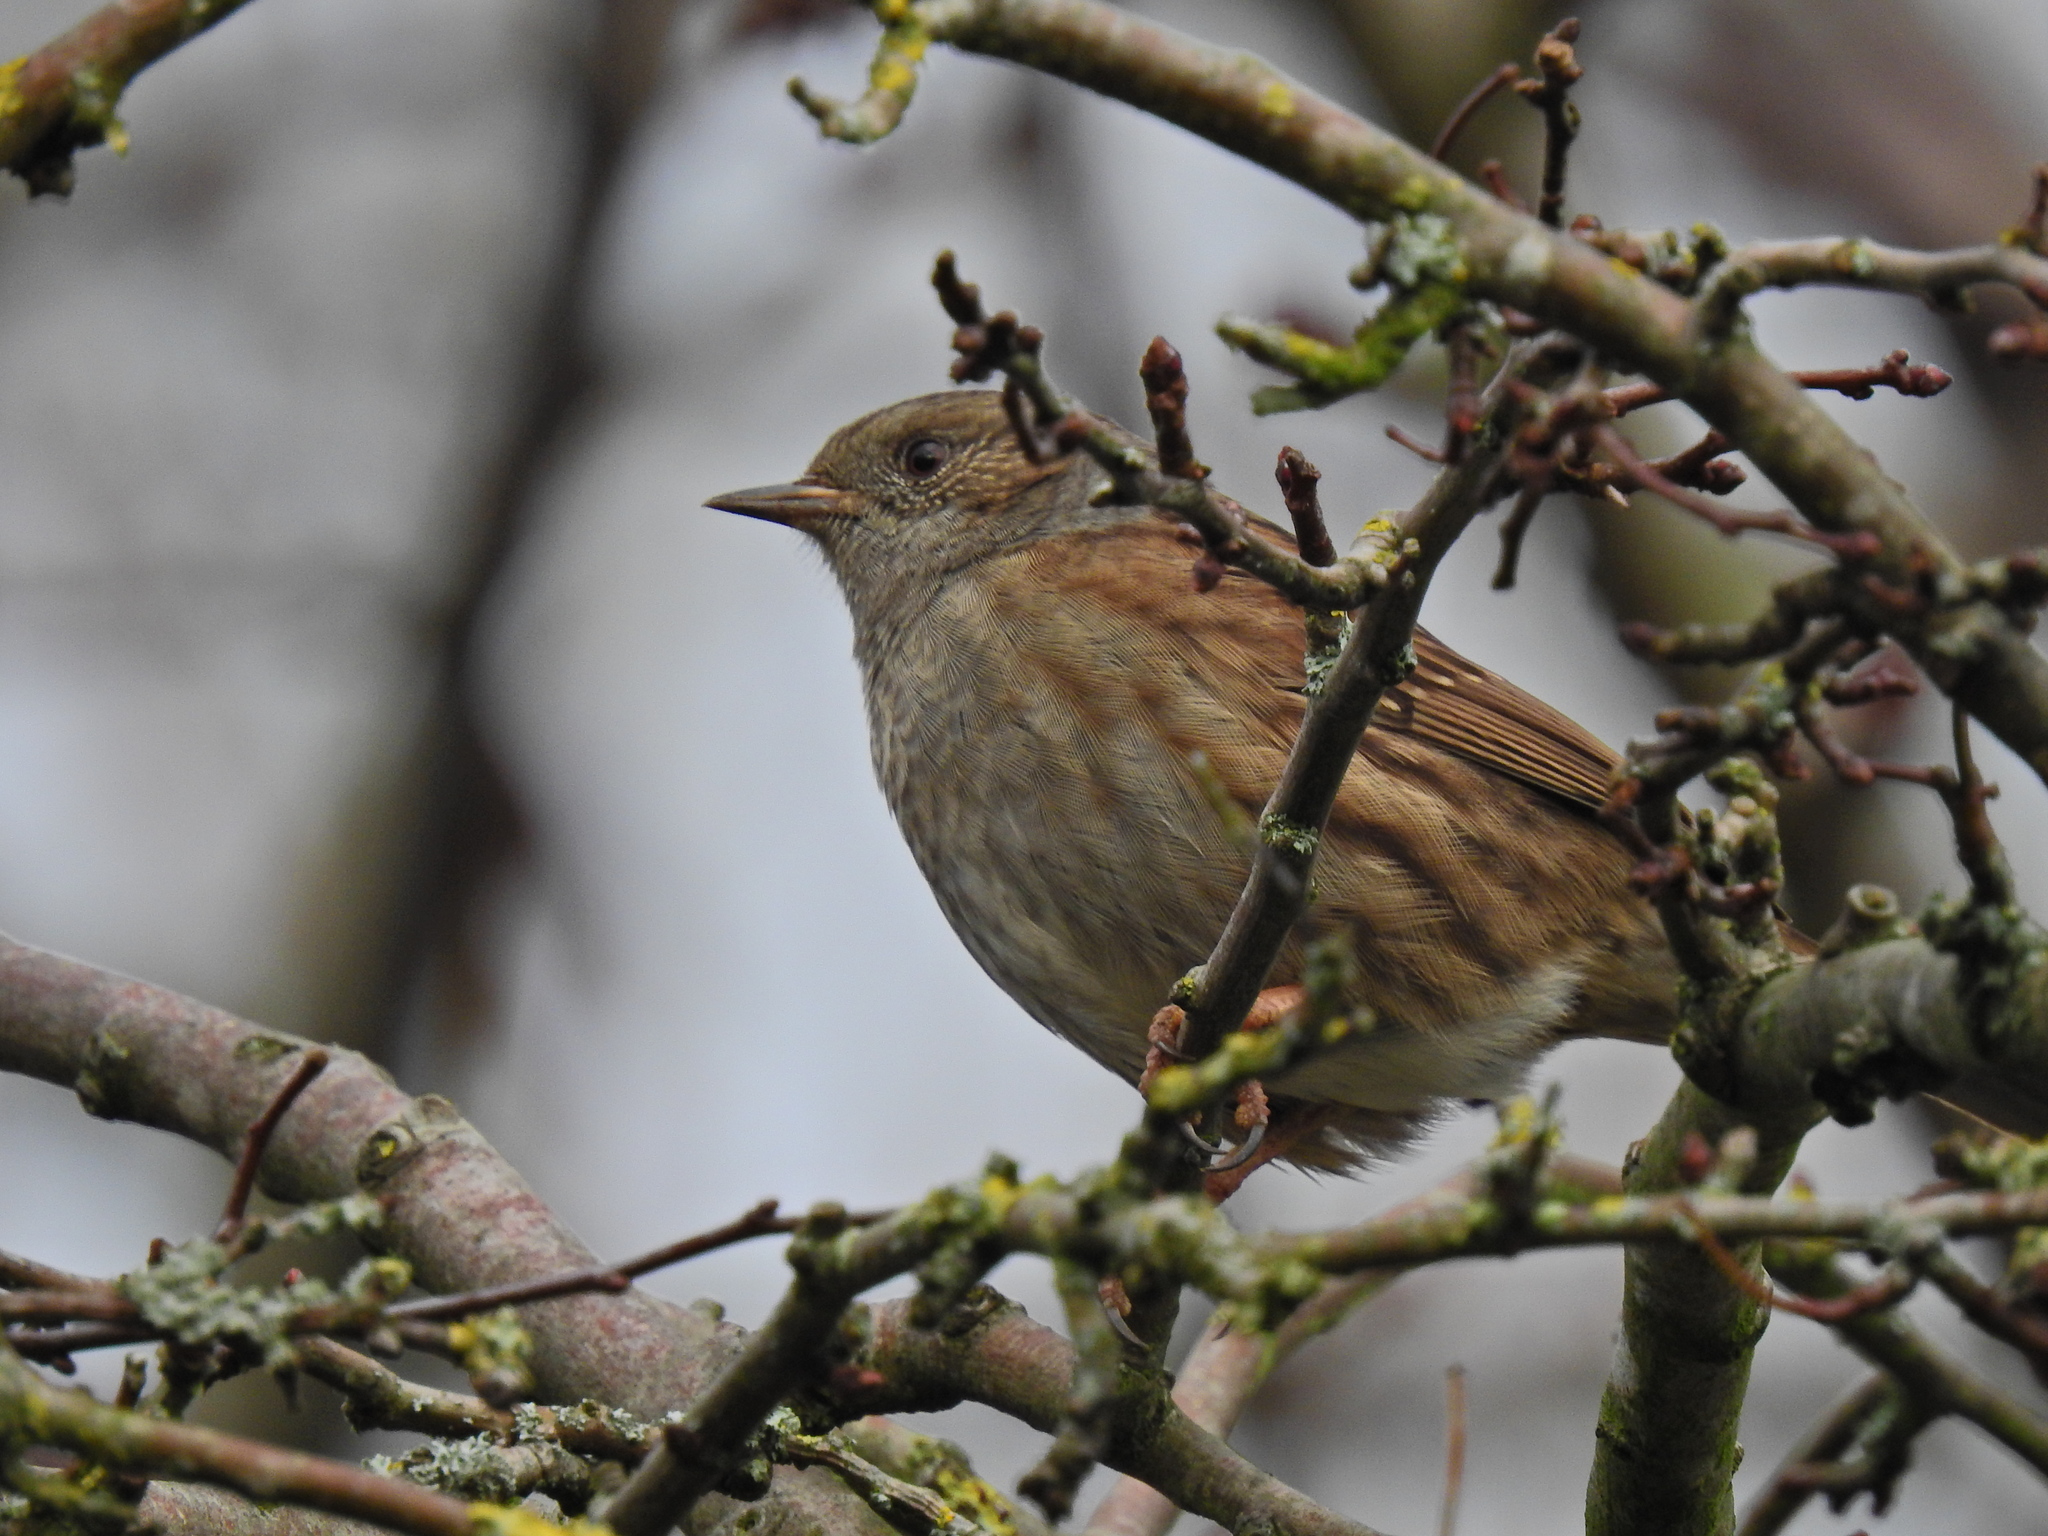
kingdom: Animalia
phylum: Chordata
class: Aves
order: Passeriformes
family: Prunellidae
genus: Prunella
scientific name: Prunella modularis
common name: Dunnock
